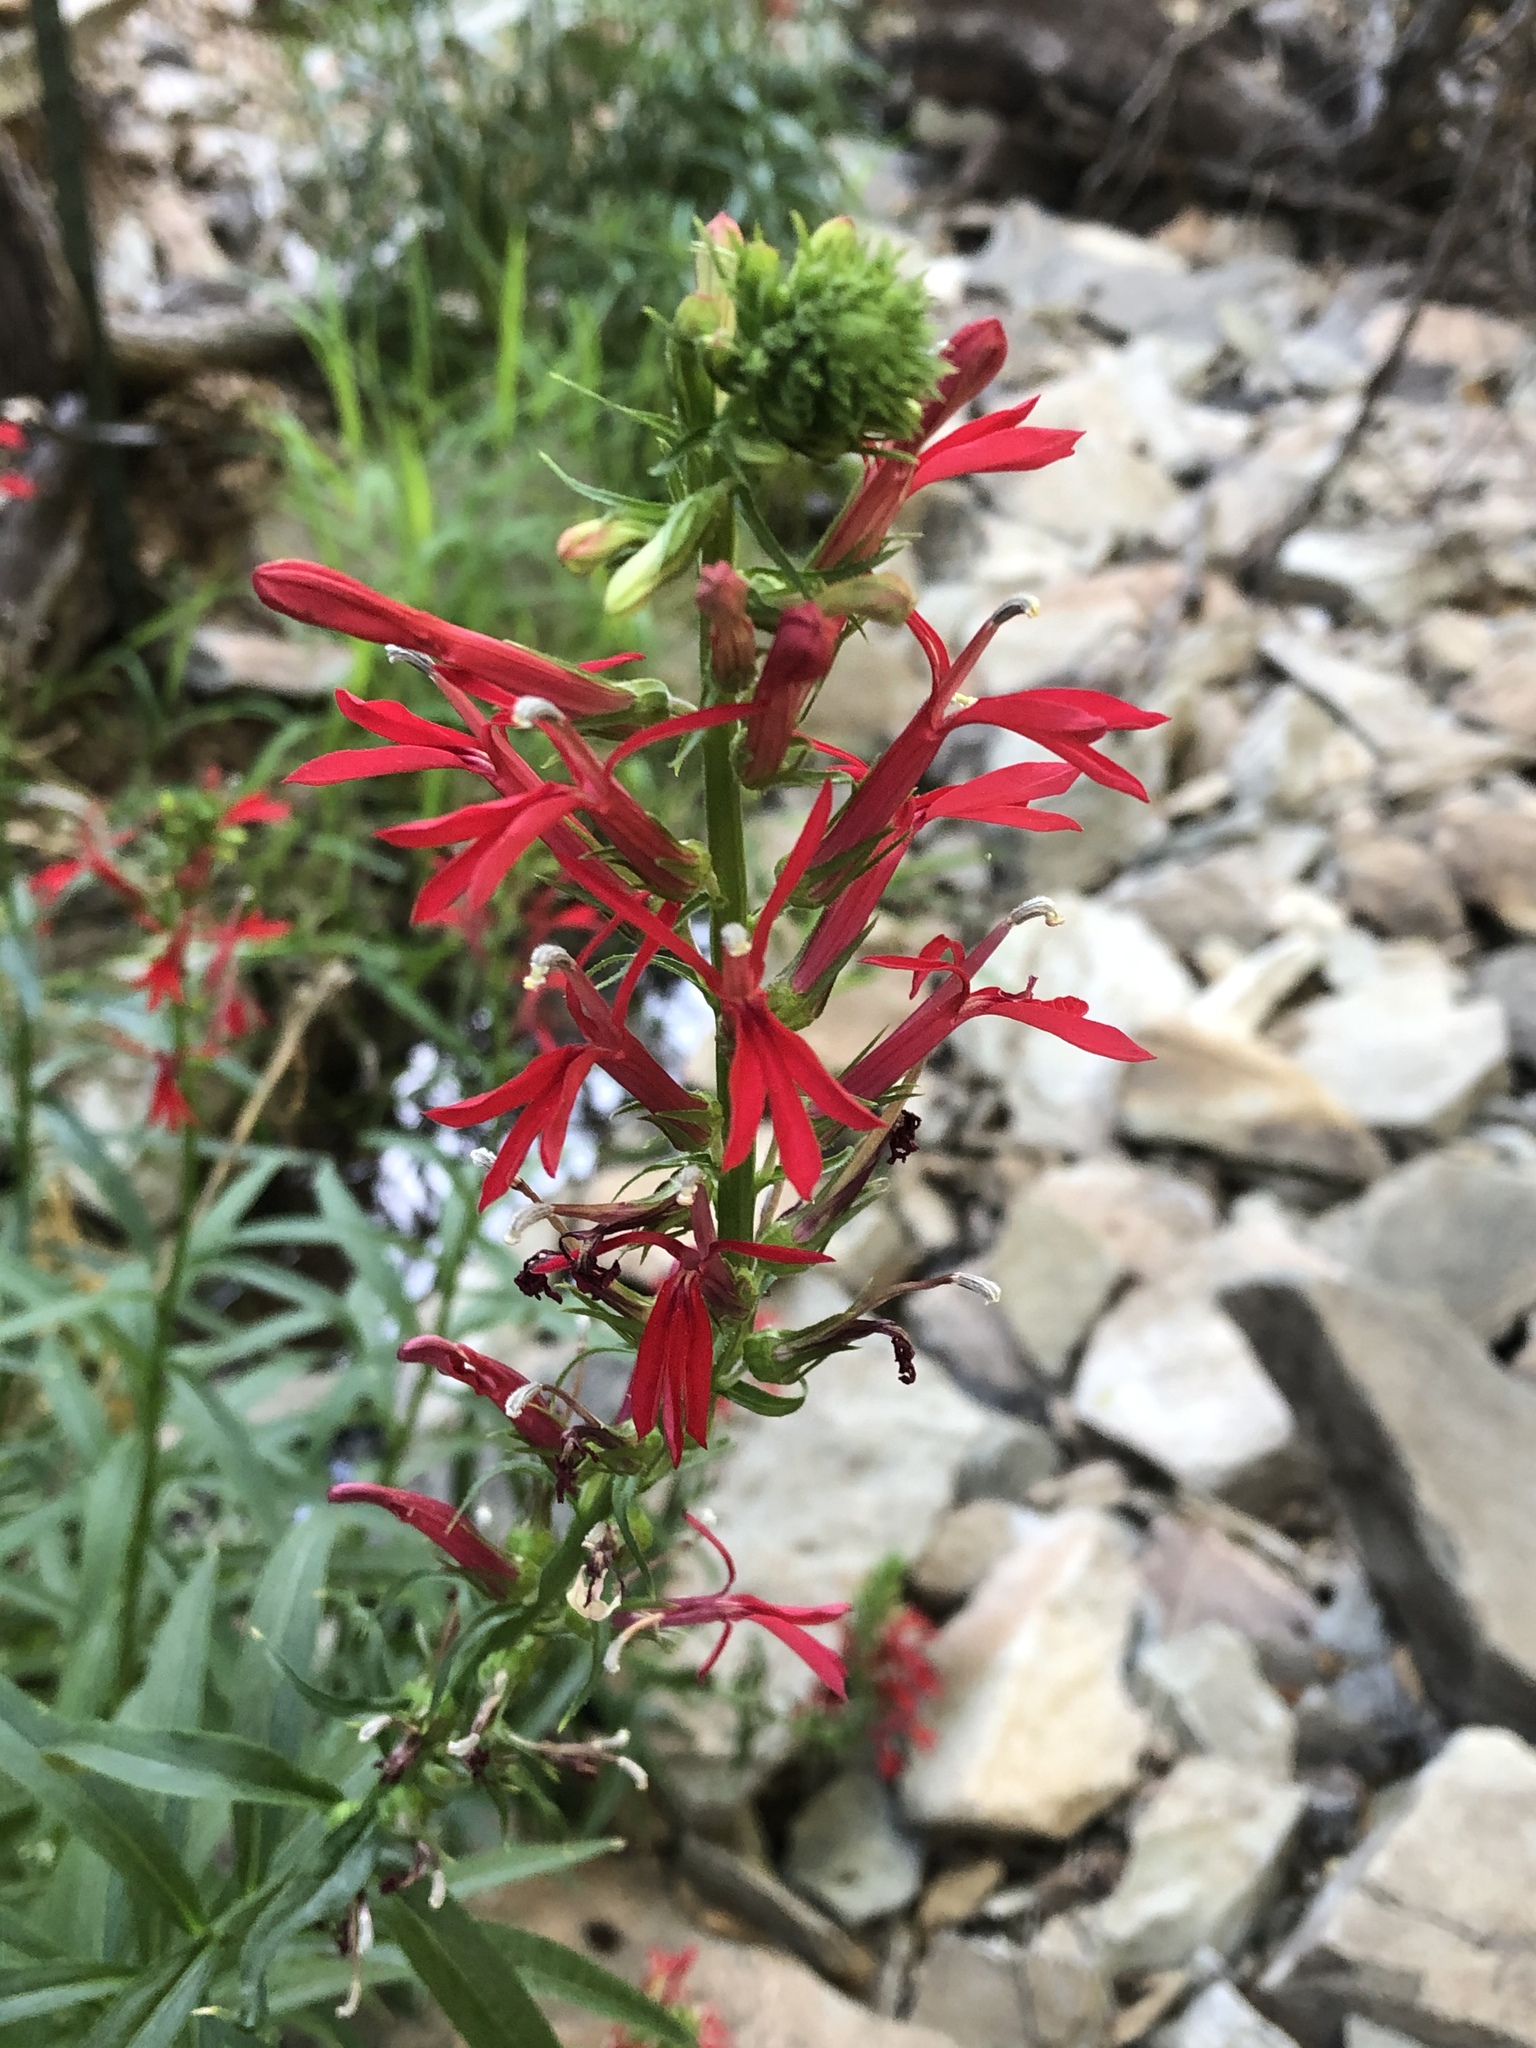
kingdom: Plantae
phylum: Tracheophyta
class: Magnoliopsida
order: Asterales
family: Campanulaceae
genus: Lobelia
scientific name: Lobelia cardinalis
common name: Cardinal flower
